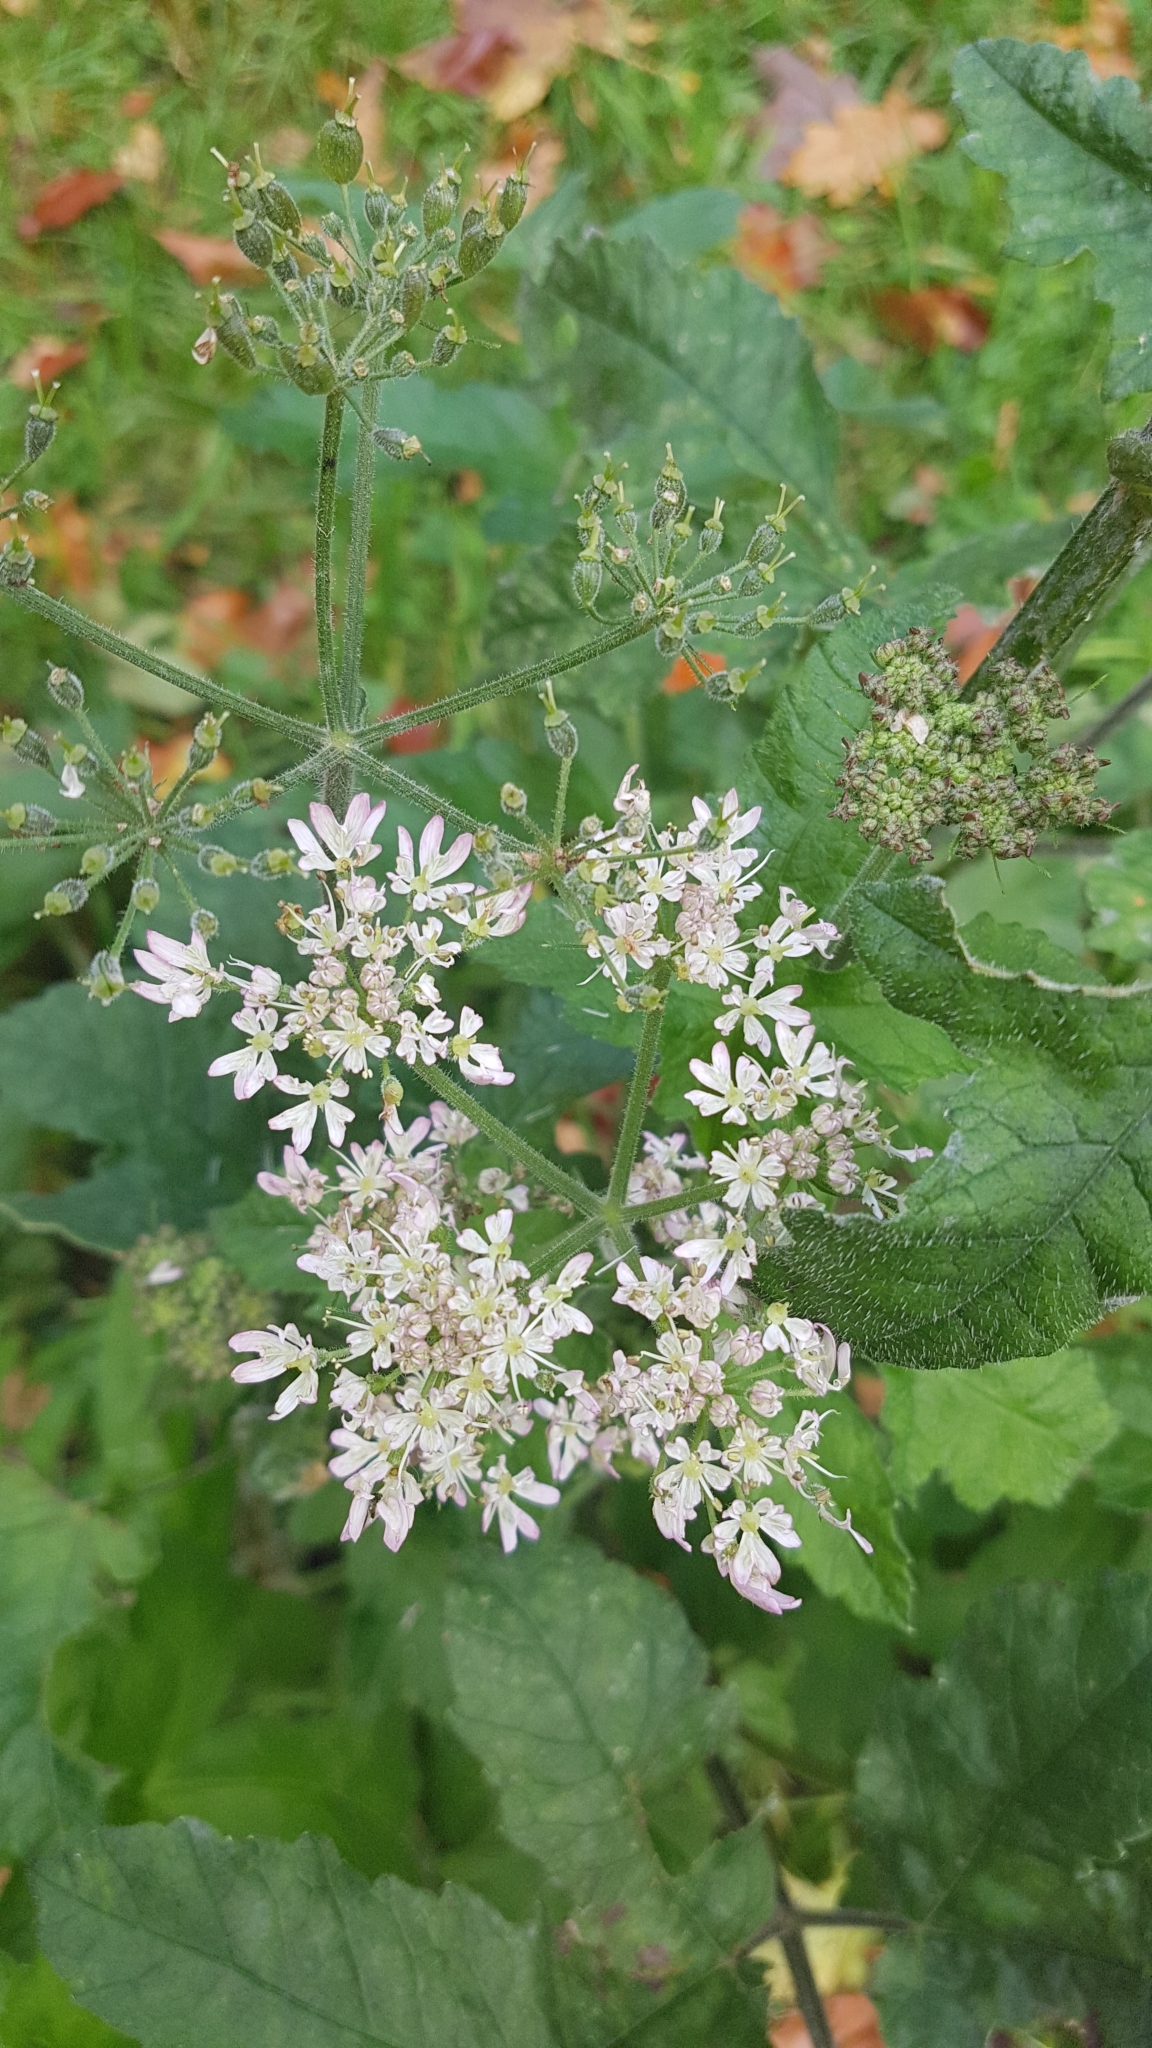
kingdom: Plantae
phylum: Tracheophyta
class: Magnoliopsida
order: Apiales
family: Apiaceae
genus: Heracleum
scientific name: Heracleum sphondylium
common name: Hogweed
